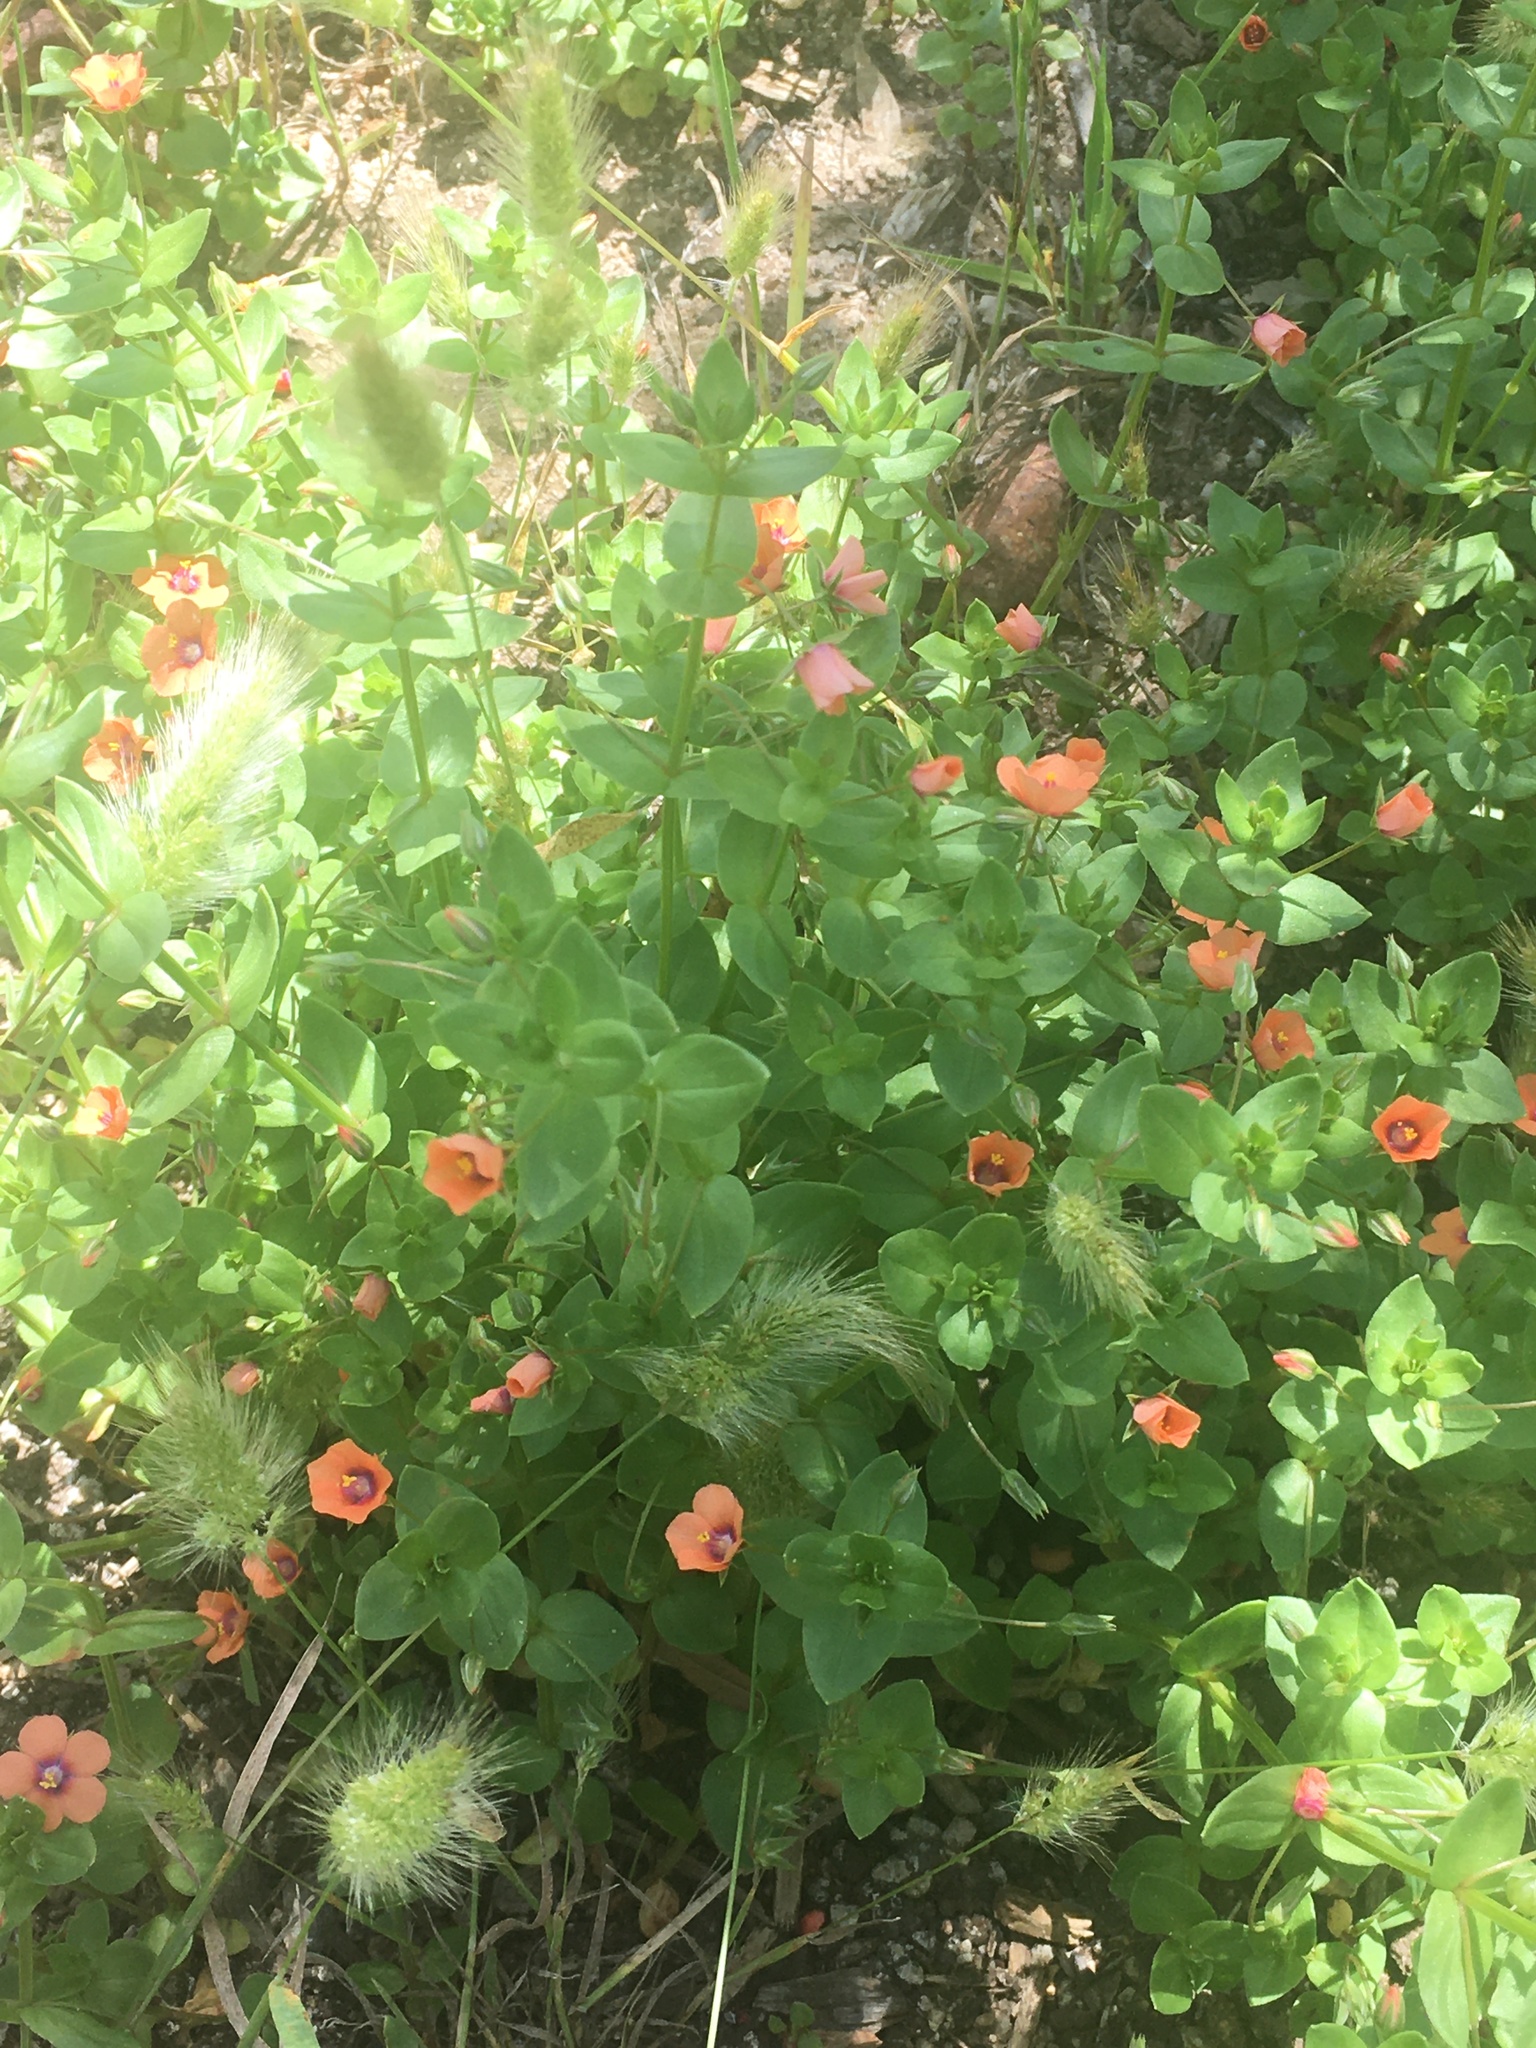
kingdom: Plantae
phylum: Tracheophyta
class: Magnoliopsida
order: Ericales
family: Primulaceae
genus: Lysimachia
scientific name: Lysimachia arvensis
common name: Scarlet pimpernel
